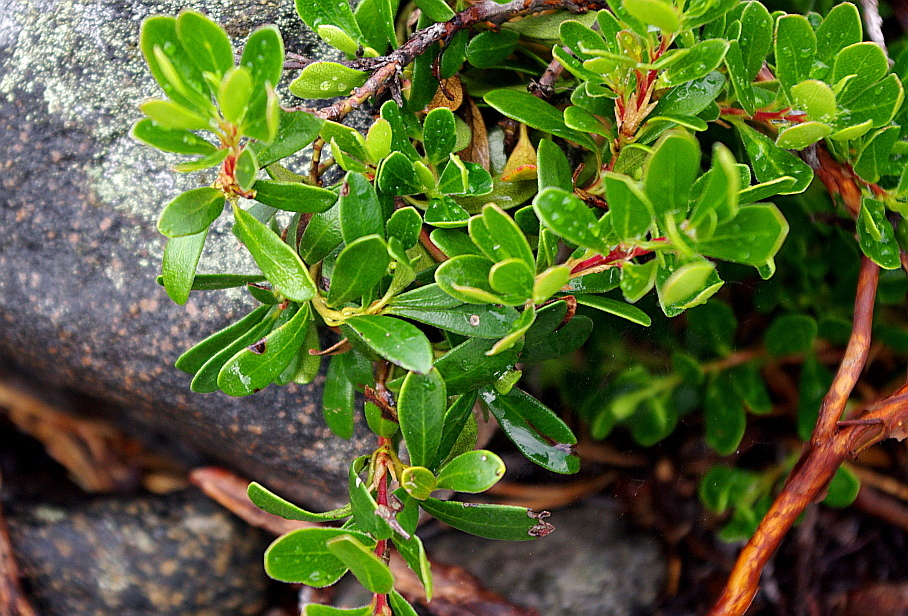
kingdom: Plantae
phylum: Tracheophyta
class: Magnoliopsida
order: Ericales
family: Ericaceae
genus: Arctostaphylos
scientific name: Arctostaphylos uva-ursi
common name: Bearberry
